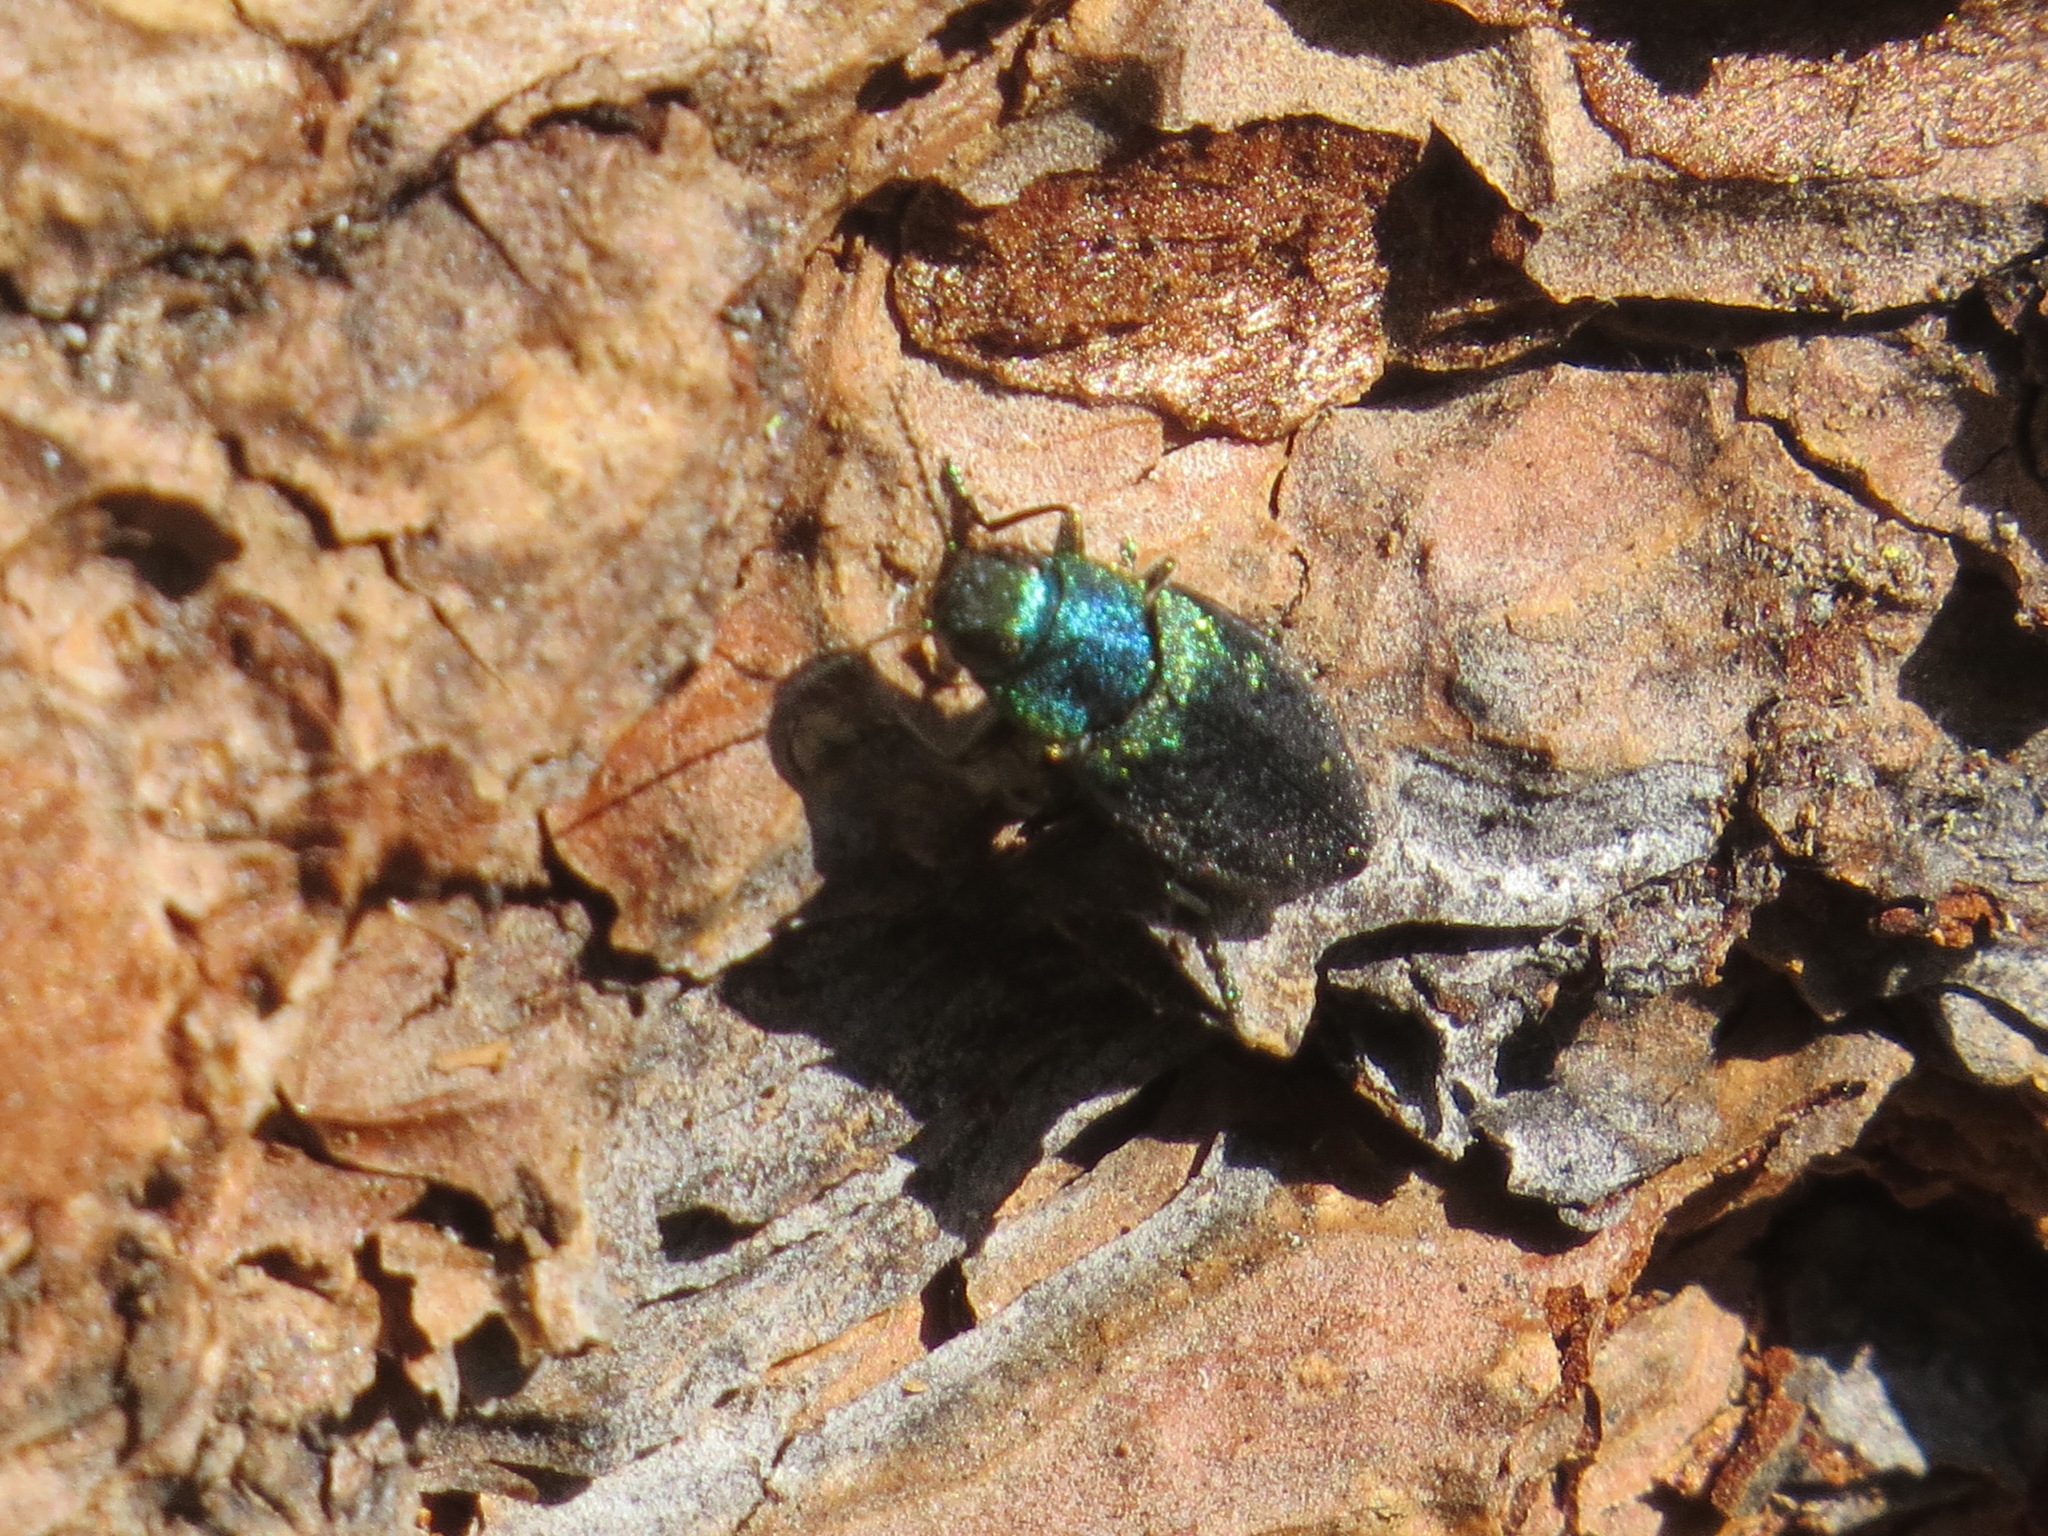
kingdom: Animalia
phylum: Arthropoda
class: Insecta
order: Coleoptera
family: Buprestidae
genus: Phaenops
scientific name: Phaenops gentilis
